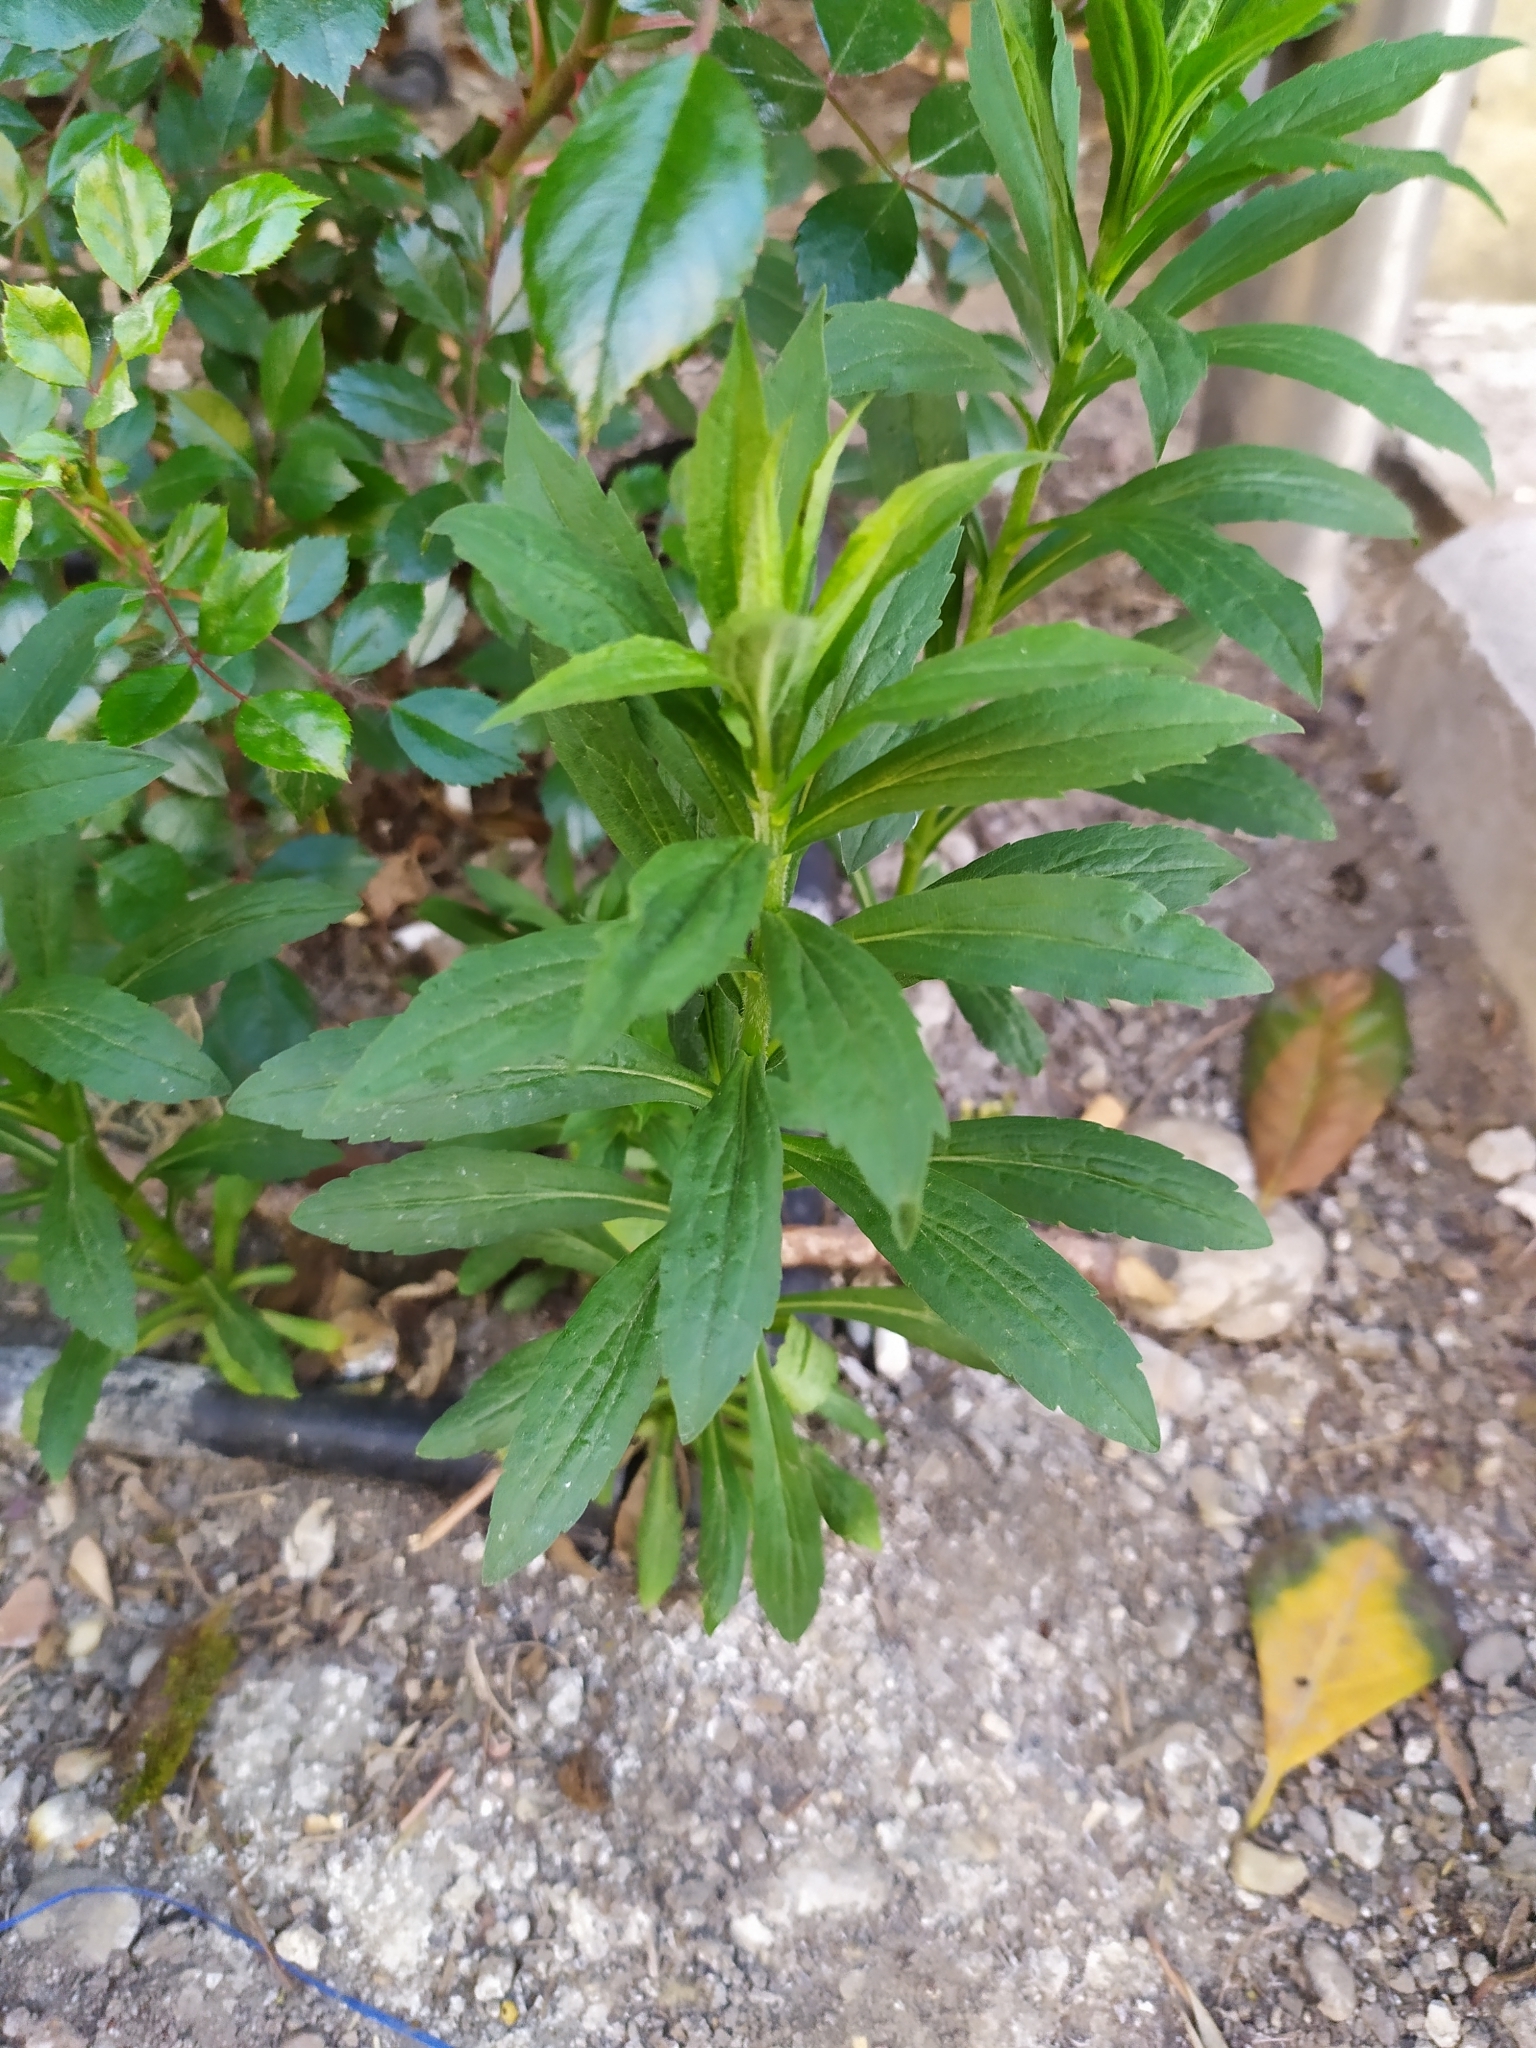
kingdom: Plantae
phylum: Tracheophyta
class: Magnoliopsida
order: Asterales
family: Asteraceae
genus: Erigeron
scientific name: Erigeron canadensis
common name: Canadian fleabane
